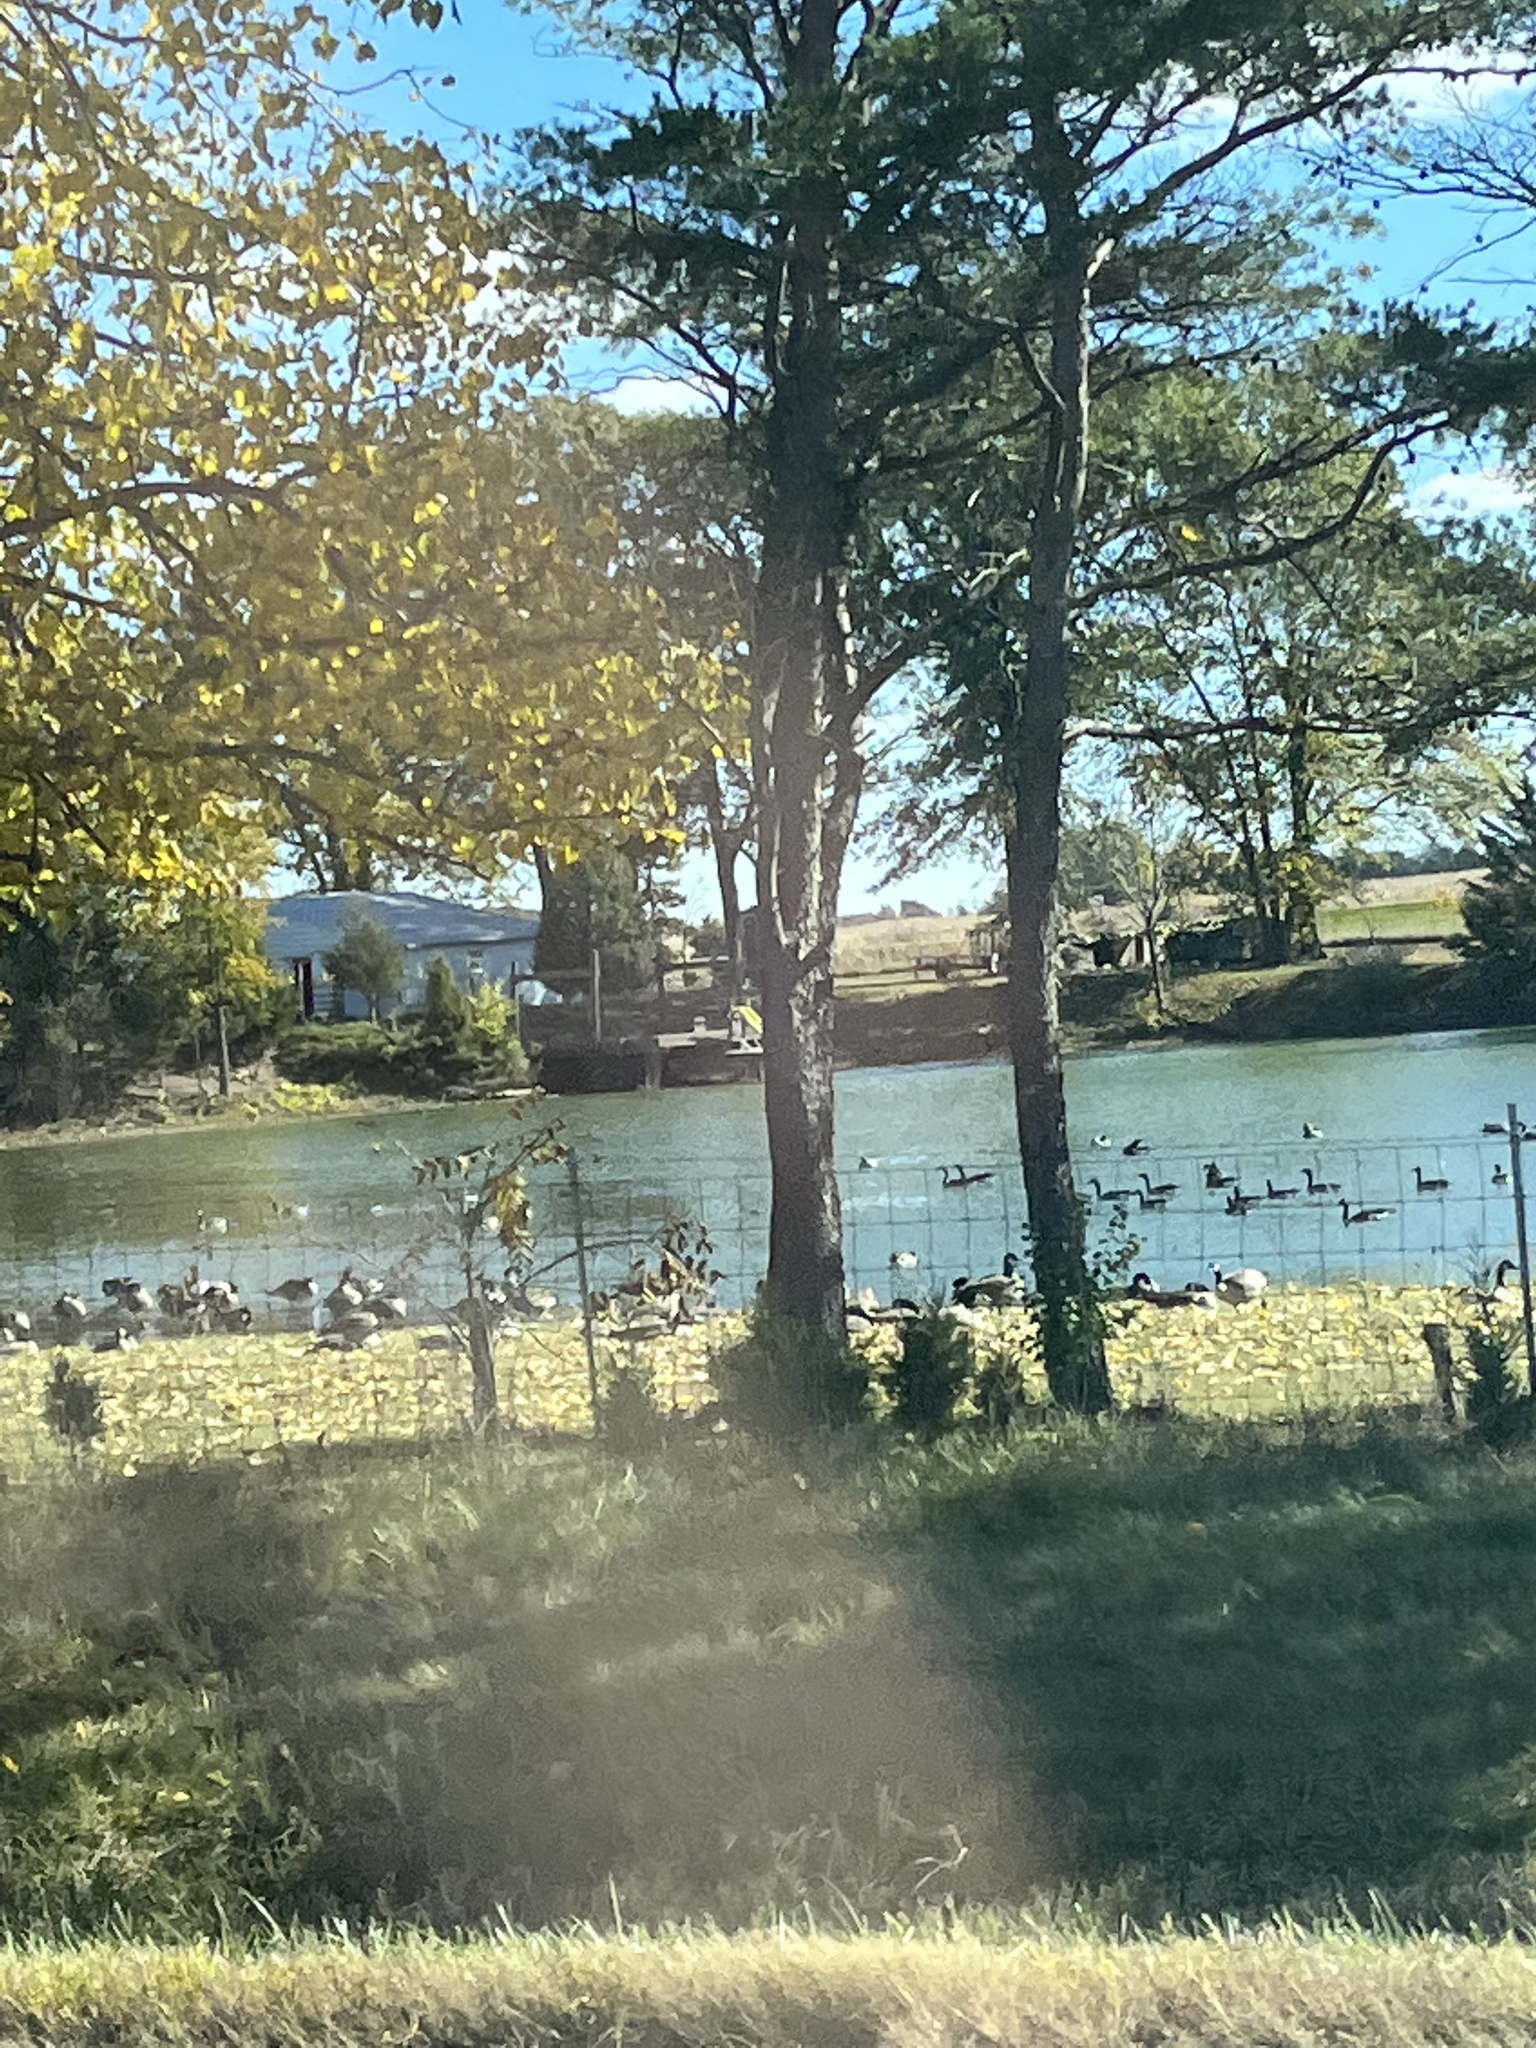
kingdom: Animalia
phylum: Chordata
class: Aves
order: Anseriformes
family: Anatidae
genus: Branta
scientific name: Branta canadensis
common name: Canada goose
